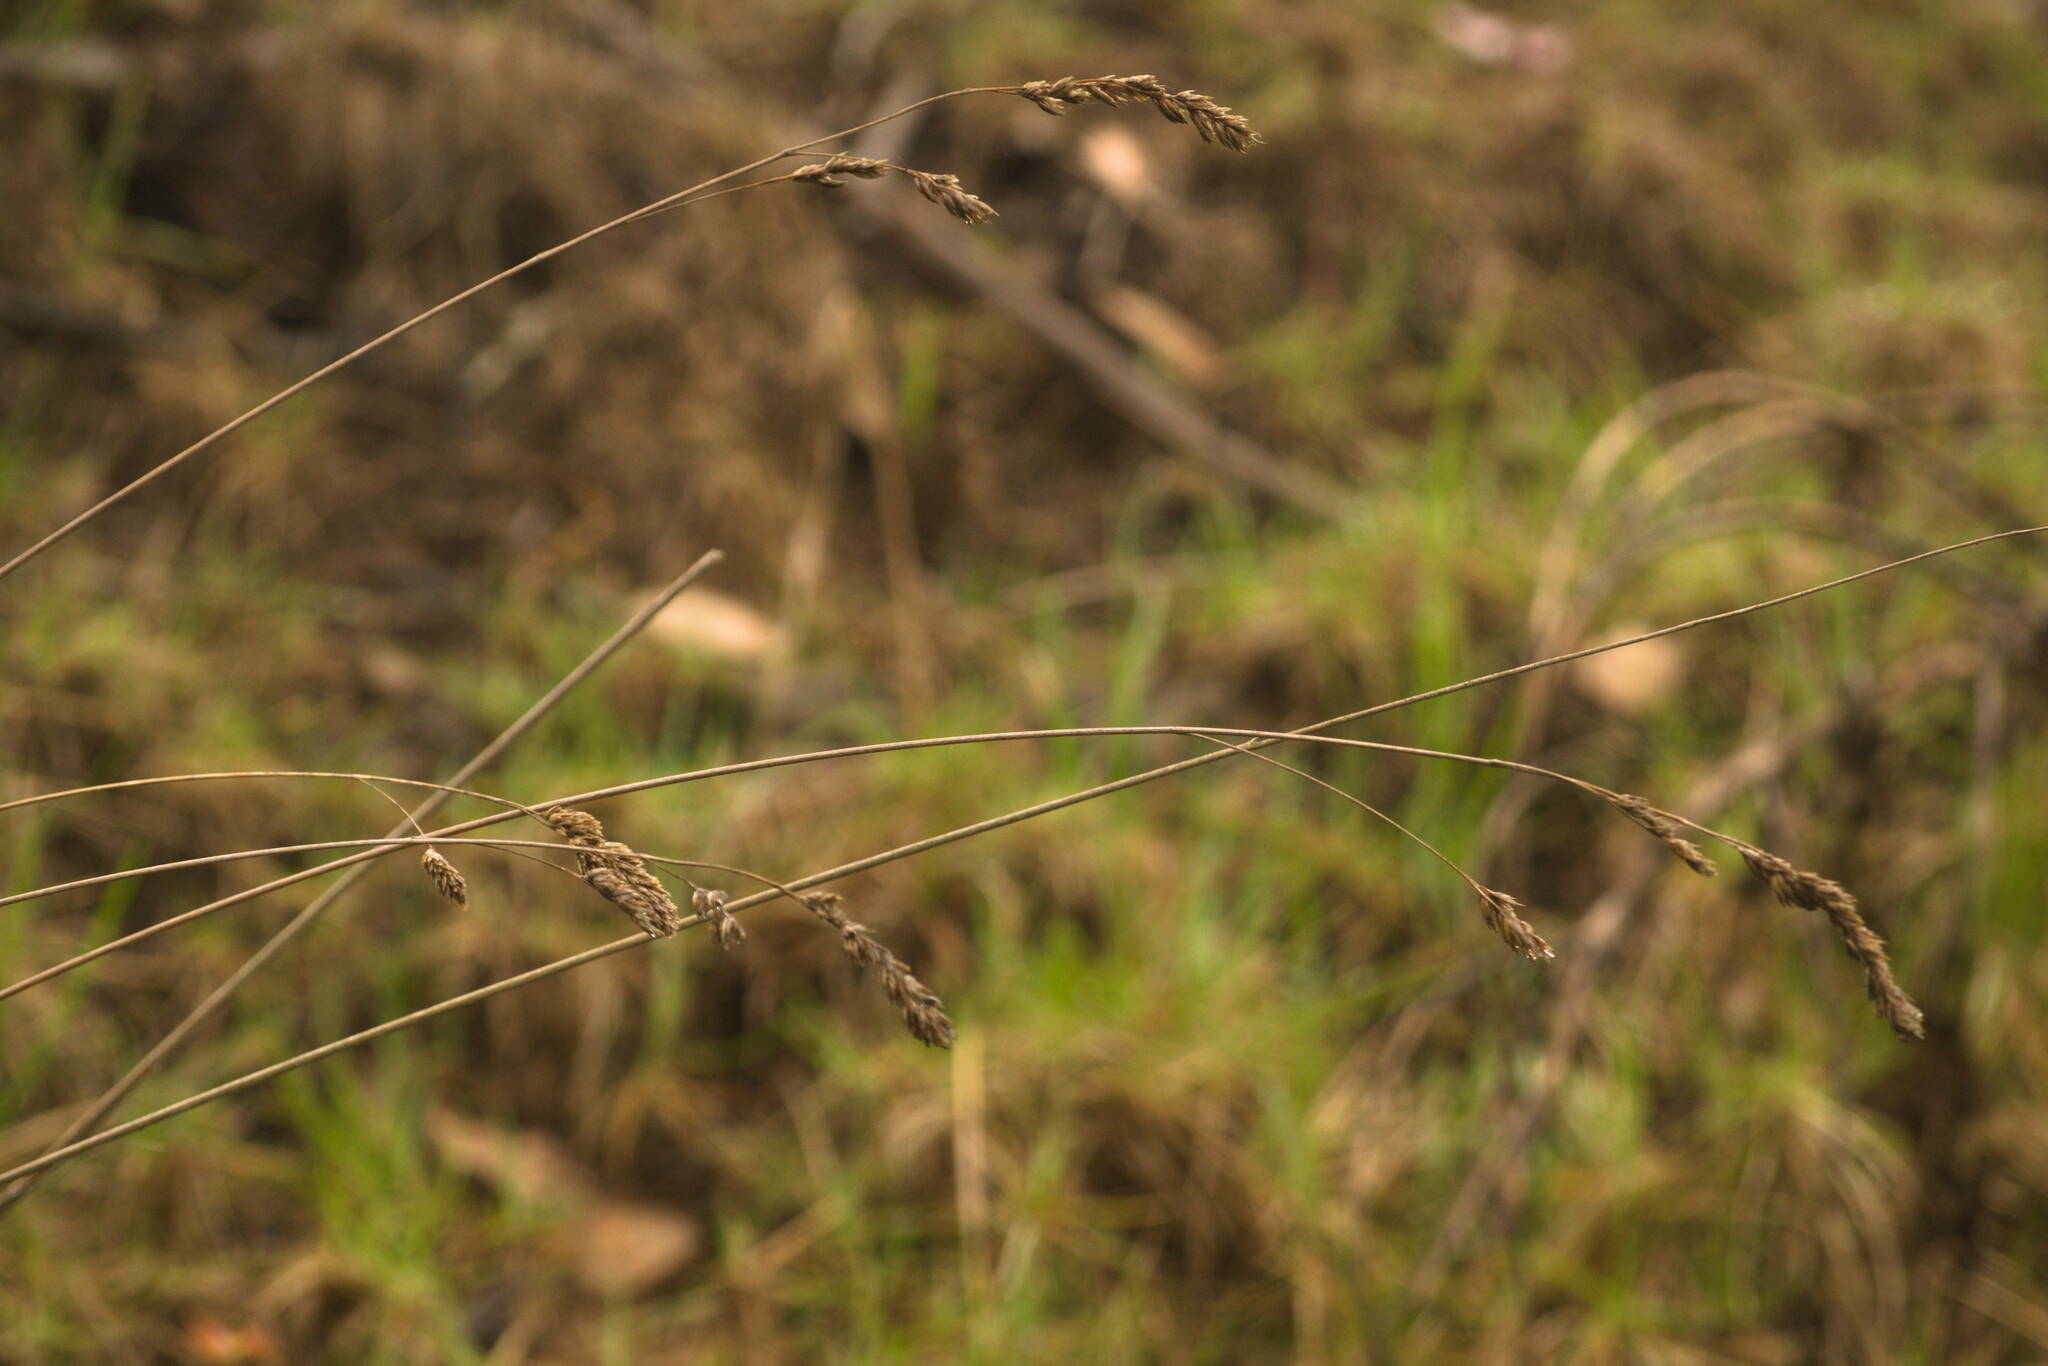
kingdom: Plantae
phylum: Tracheophyta
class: Liliopsida
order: Poales
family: Poaceae
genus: Dactylis
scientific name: Dactylis glomerata
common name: Orchardgrass
